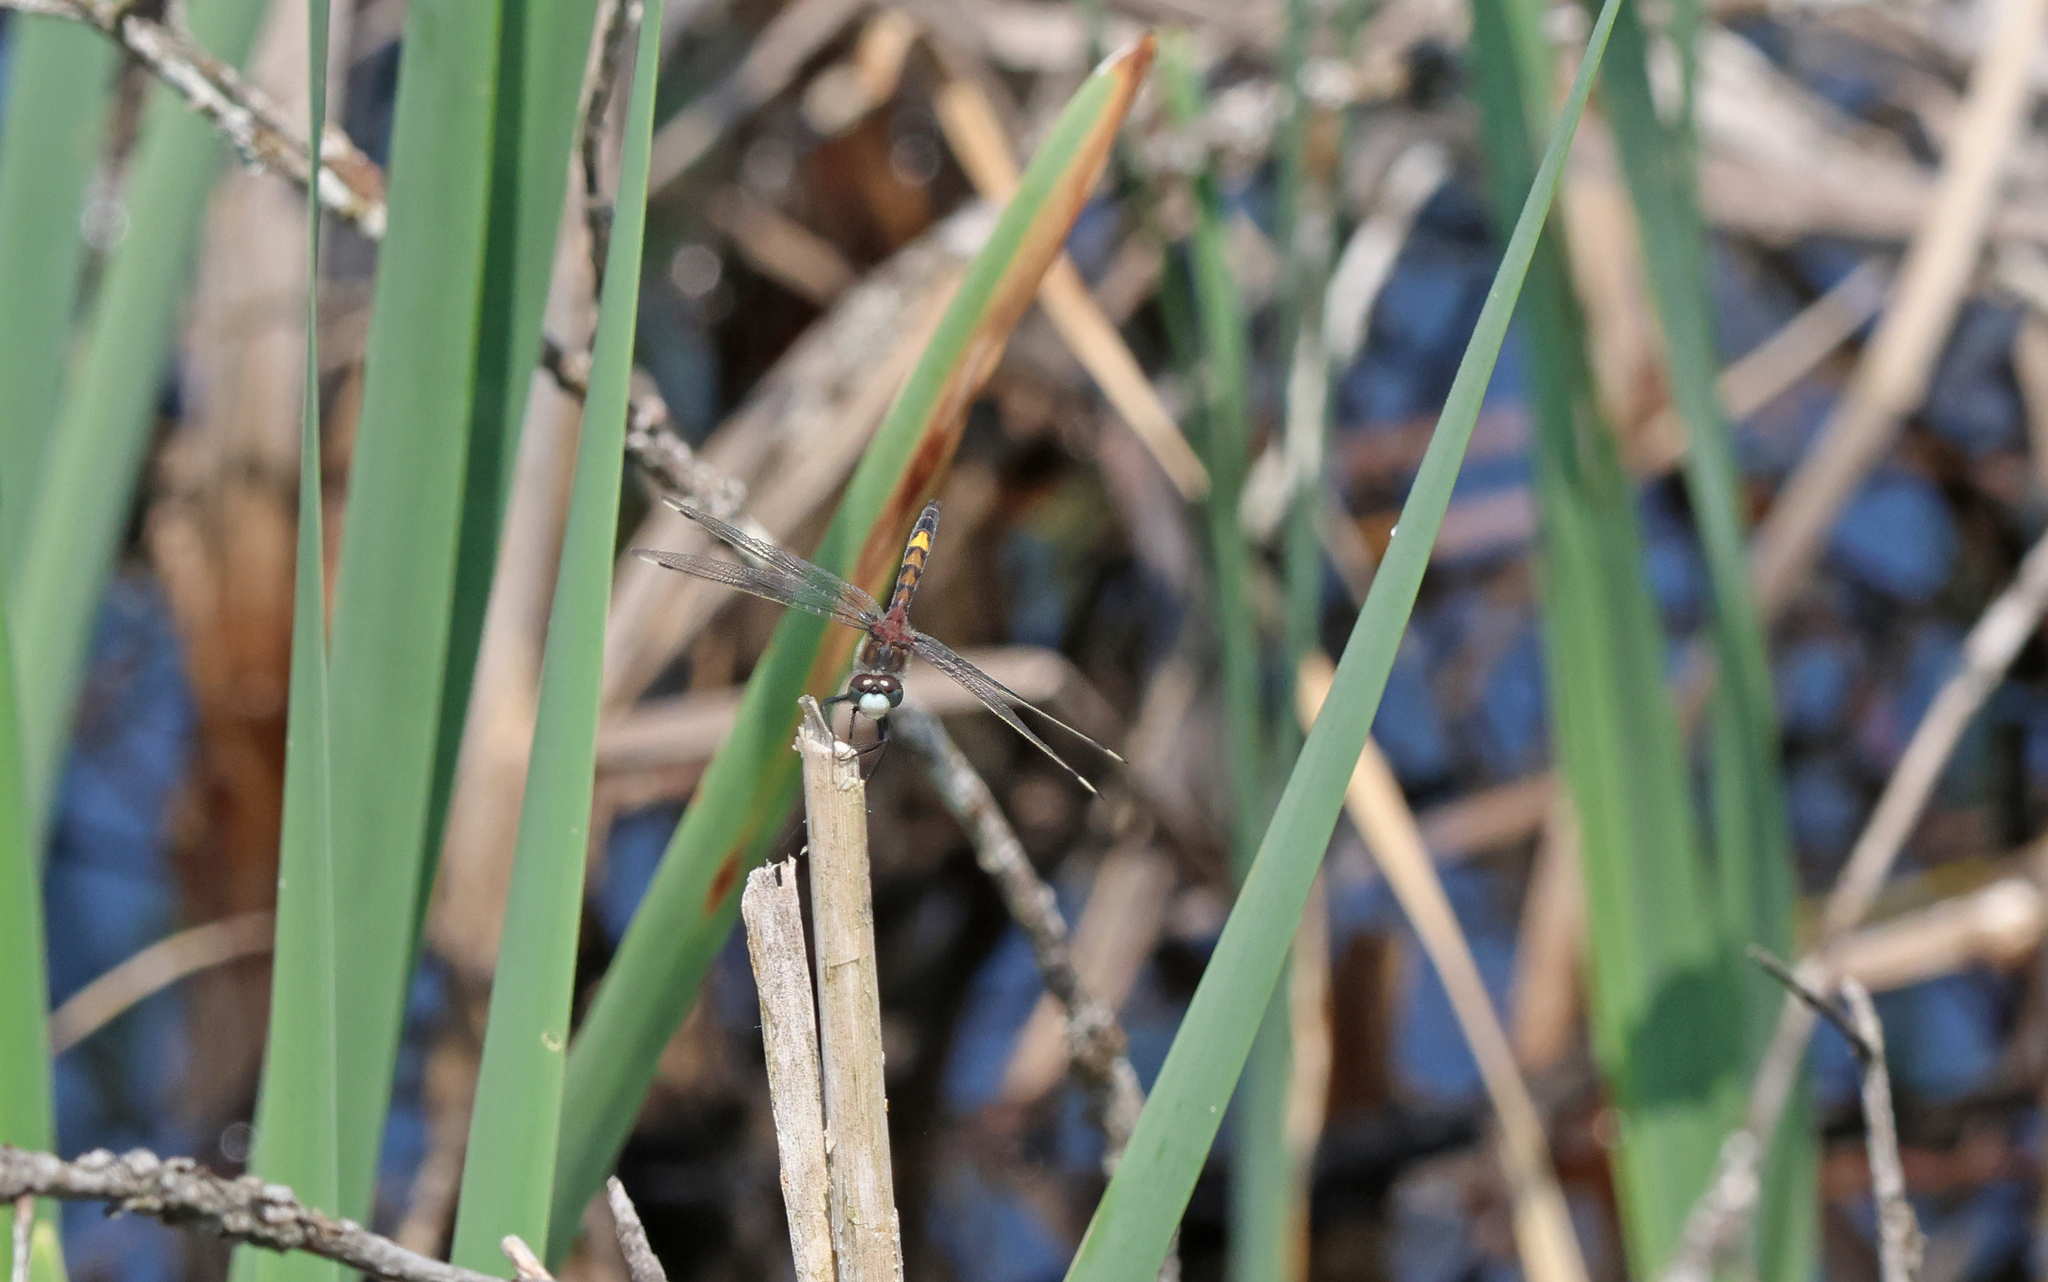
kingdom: Animalia
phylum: Arthropoda
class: Insecta
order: Odonata
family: Libellulidae
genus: Leucorrhinia
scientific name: Leucorrhinia pectoralis
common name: Yellow-spotted whiteface
